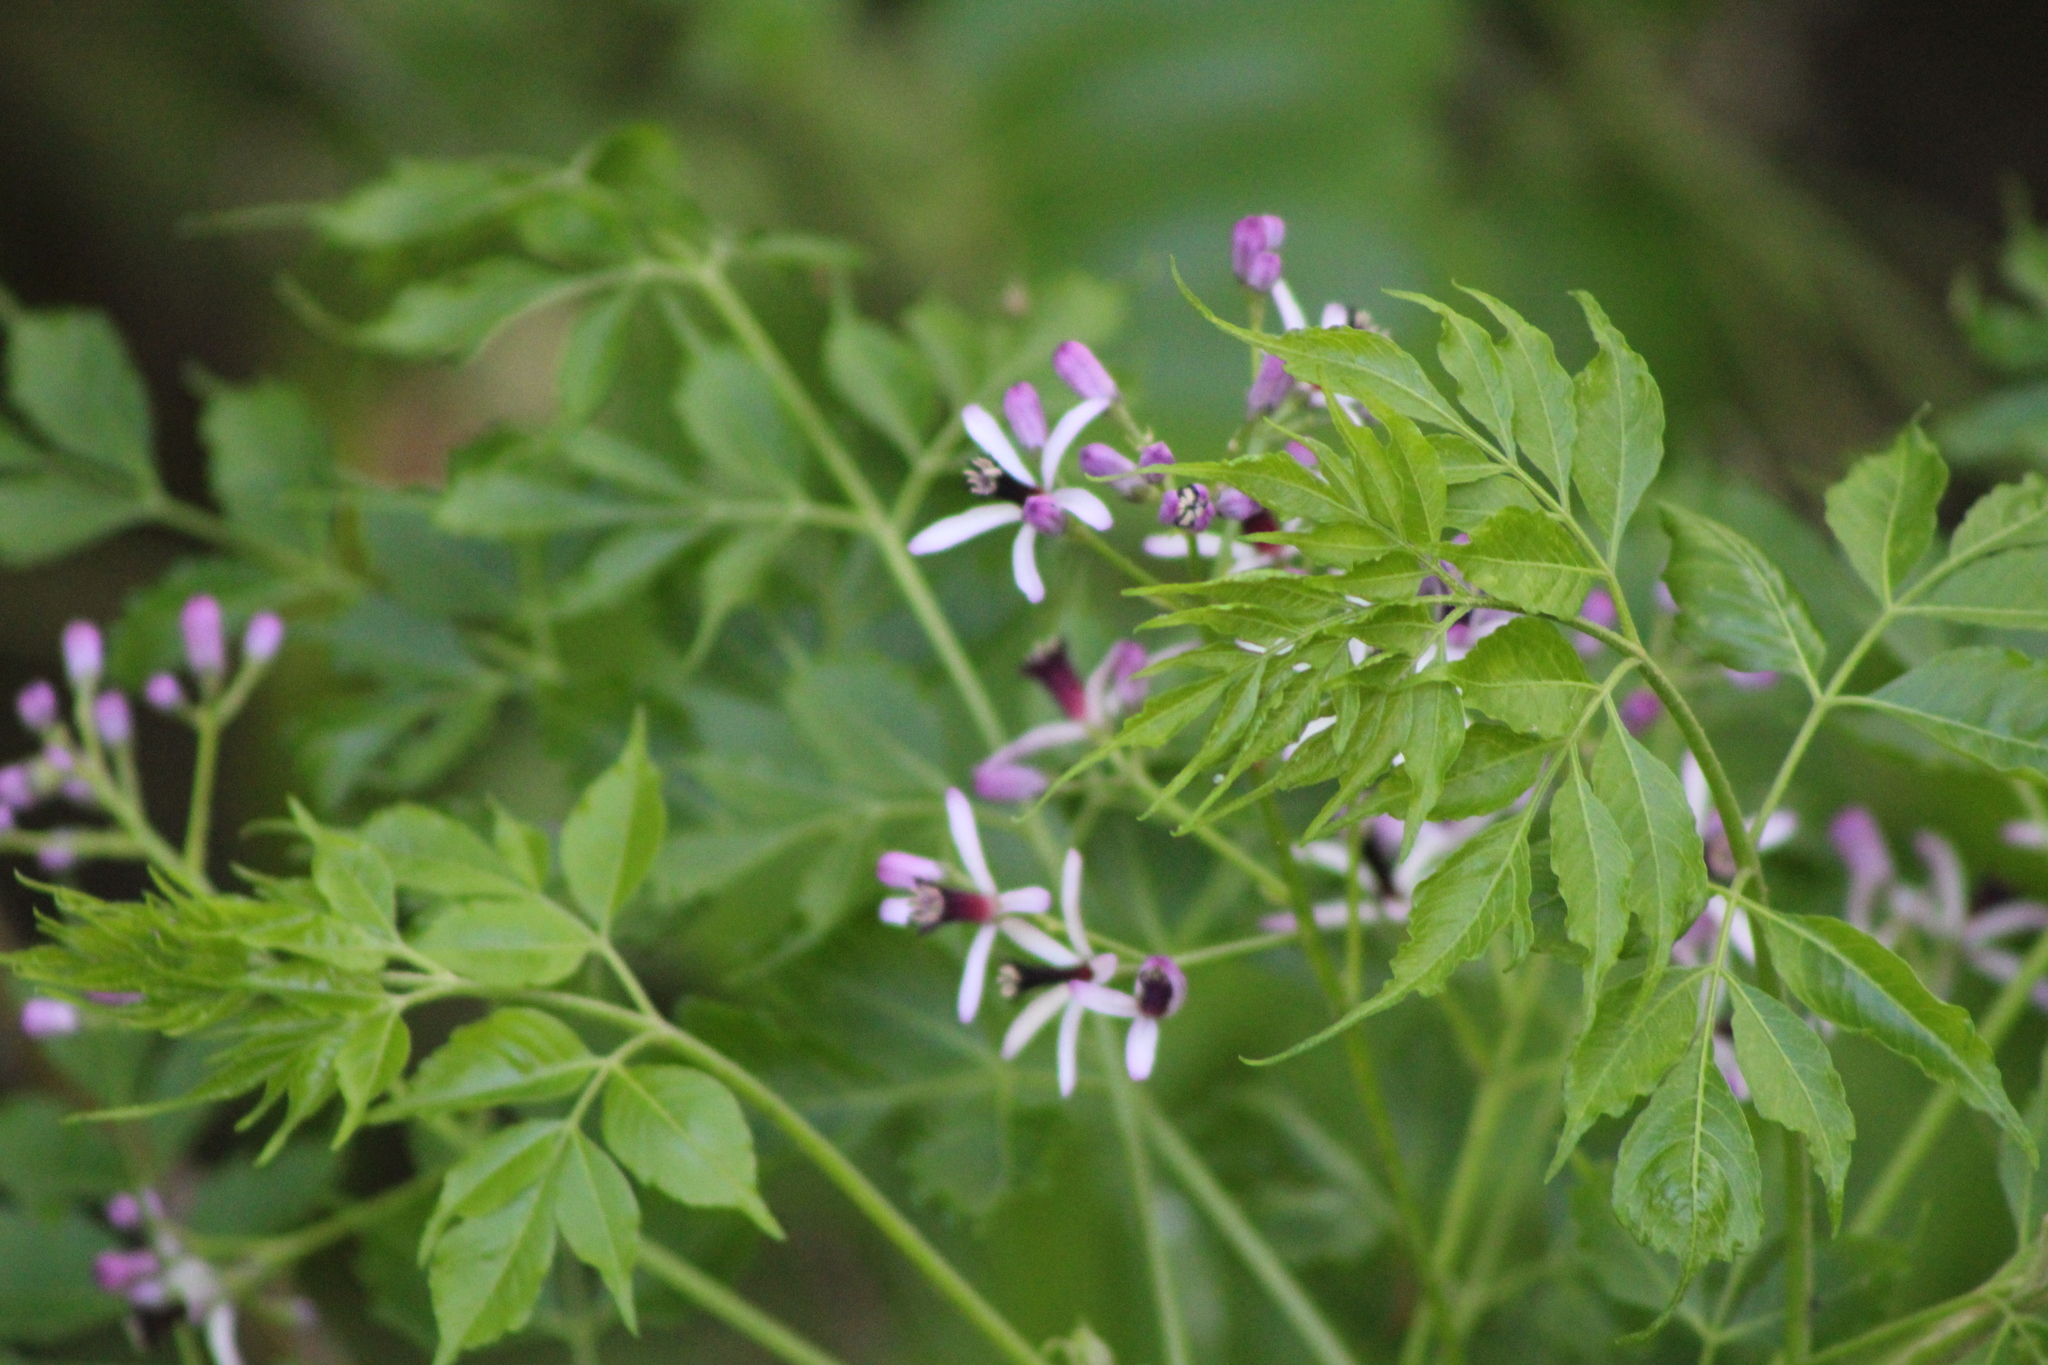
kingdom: Plantae
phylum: Tracheophyta
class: Magnoliopsida
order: Sapindales
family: Meliaceae
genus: Melia
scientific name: Melia azedarach
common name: Chinaberrytree
